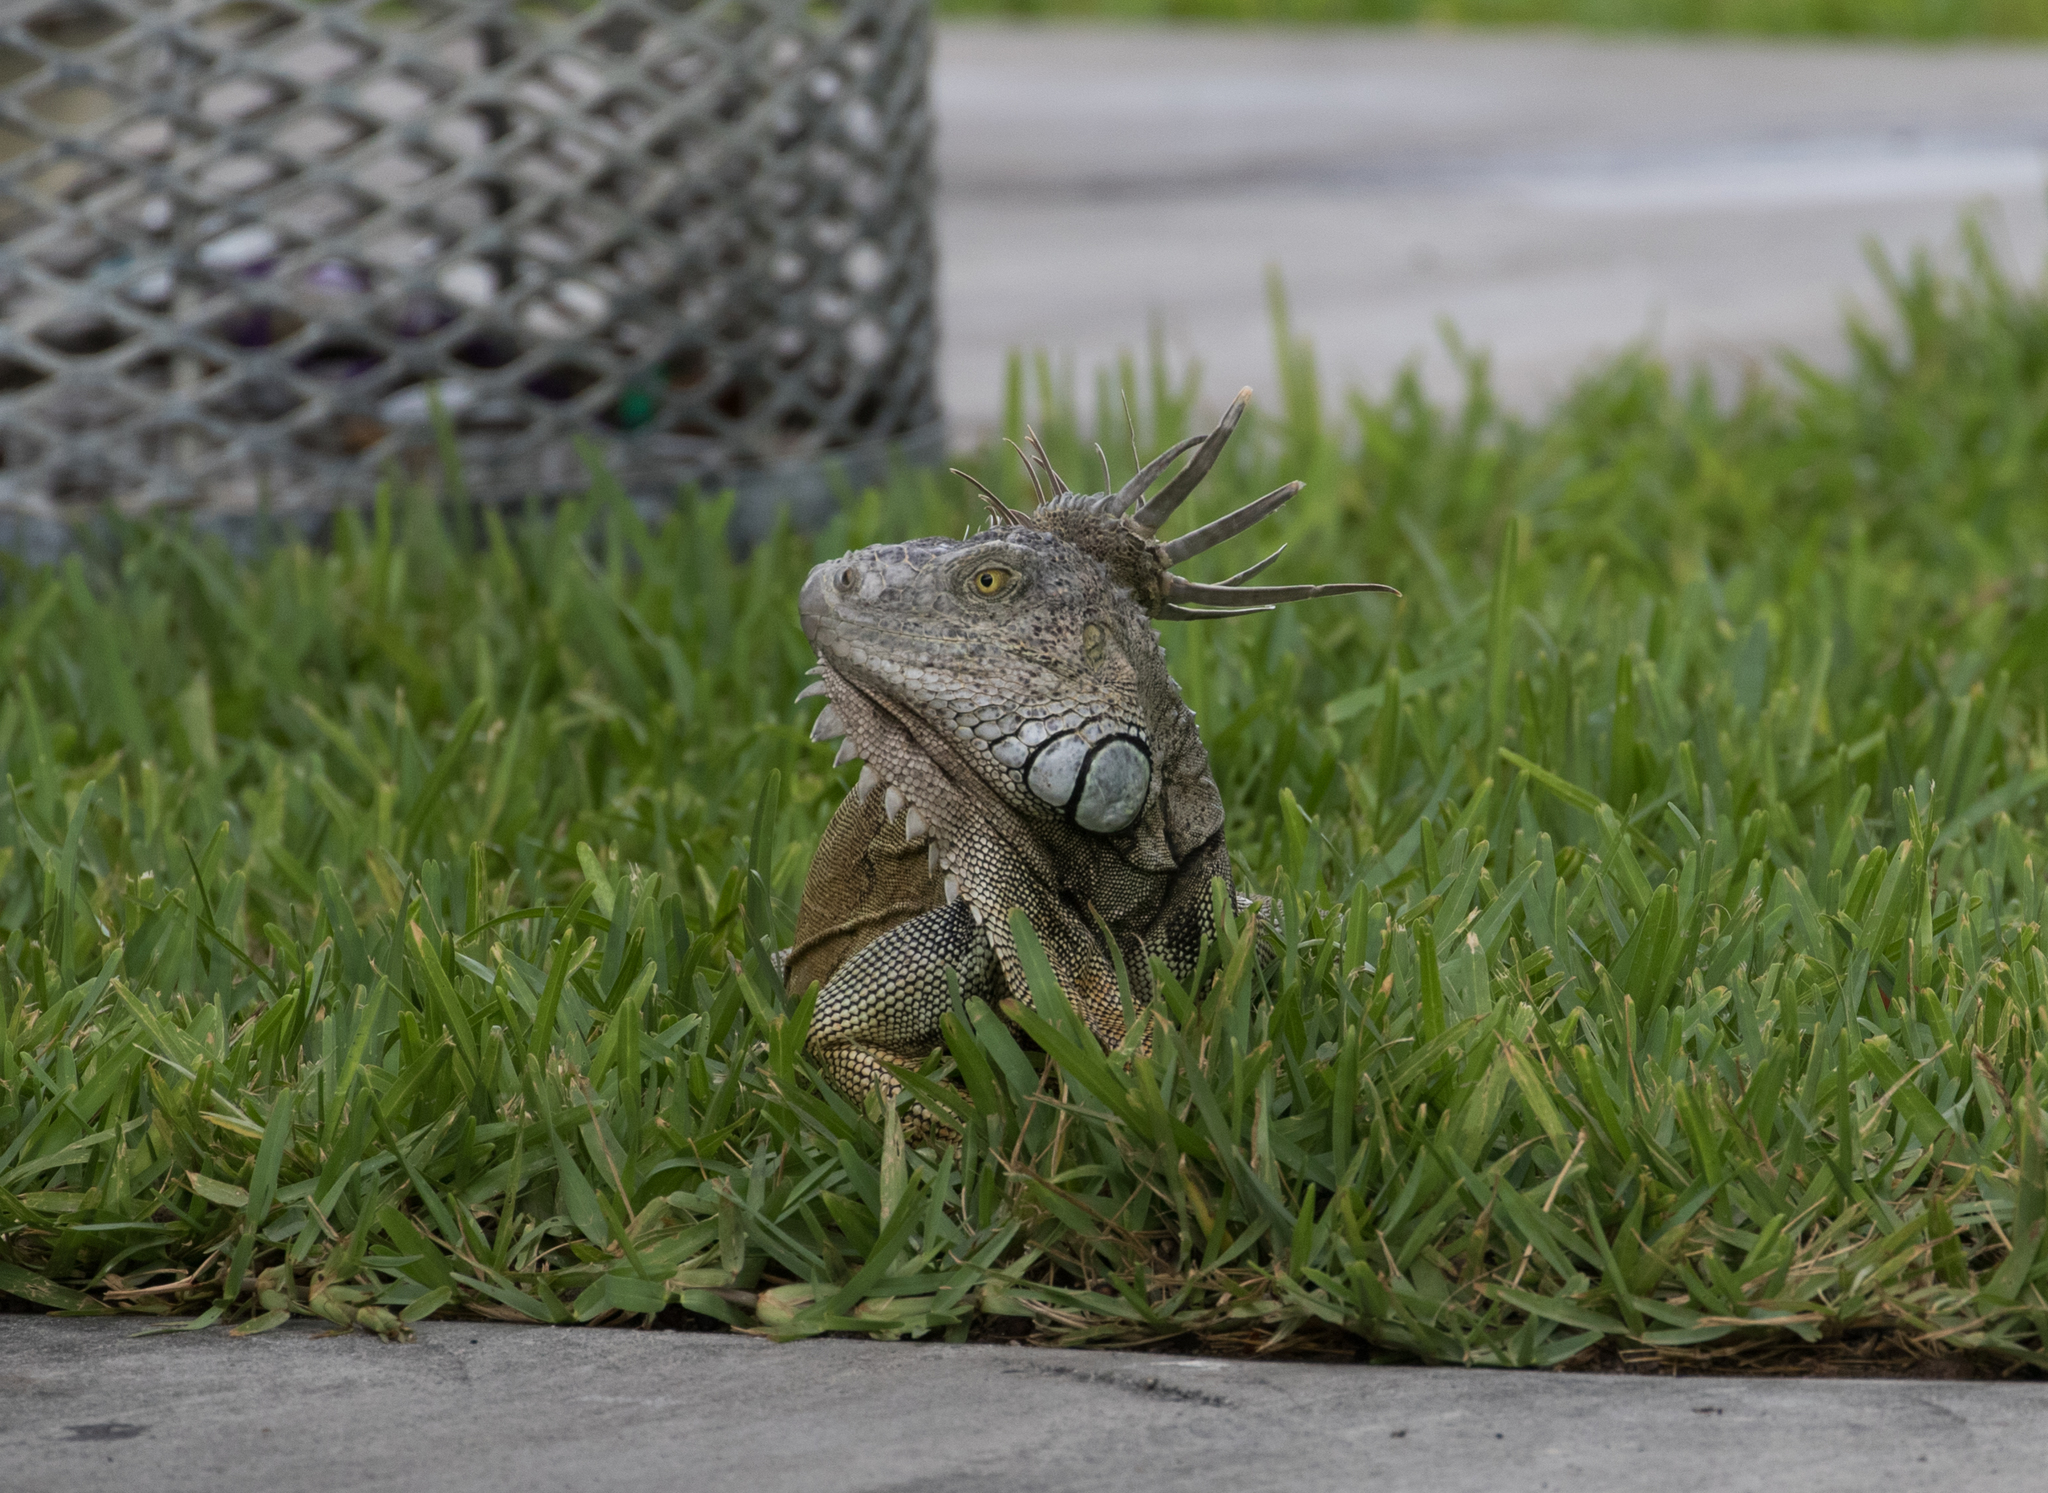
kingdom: Animalia
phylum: Chordata
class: Squamata
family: Iguanidae
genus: Iguana
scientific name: Iguana iguana
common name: Green iguana
